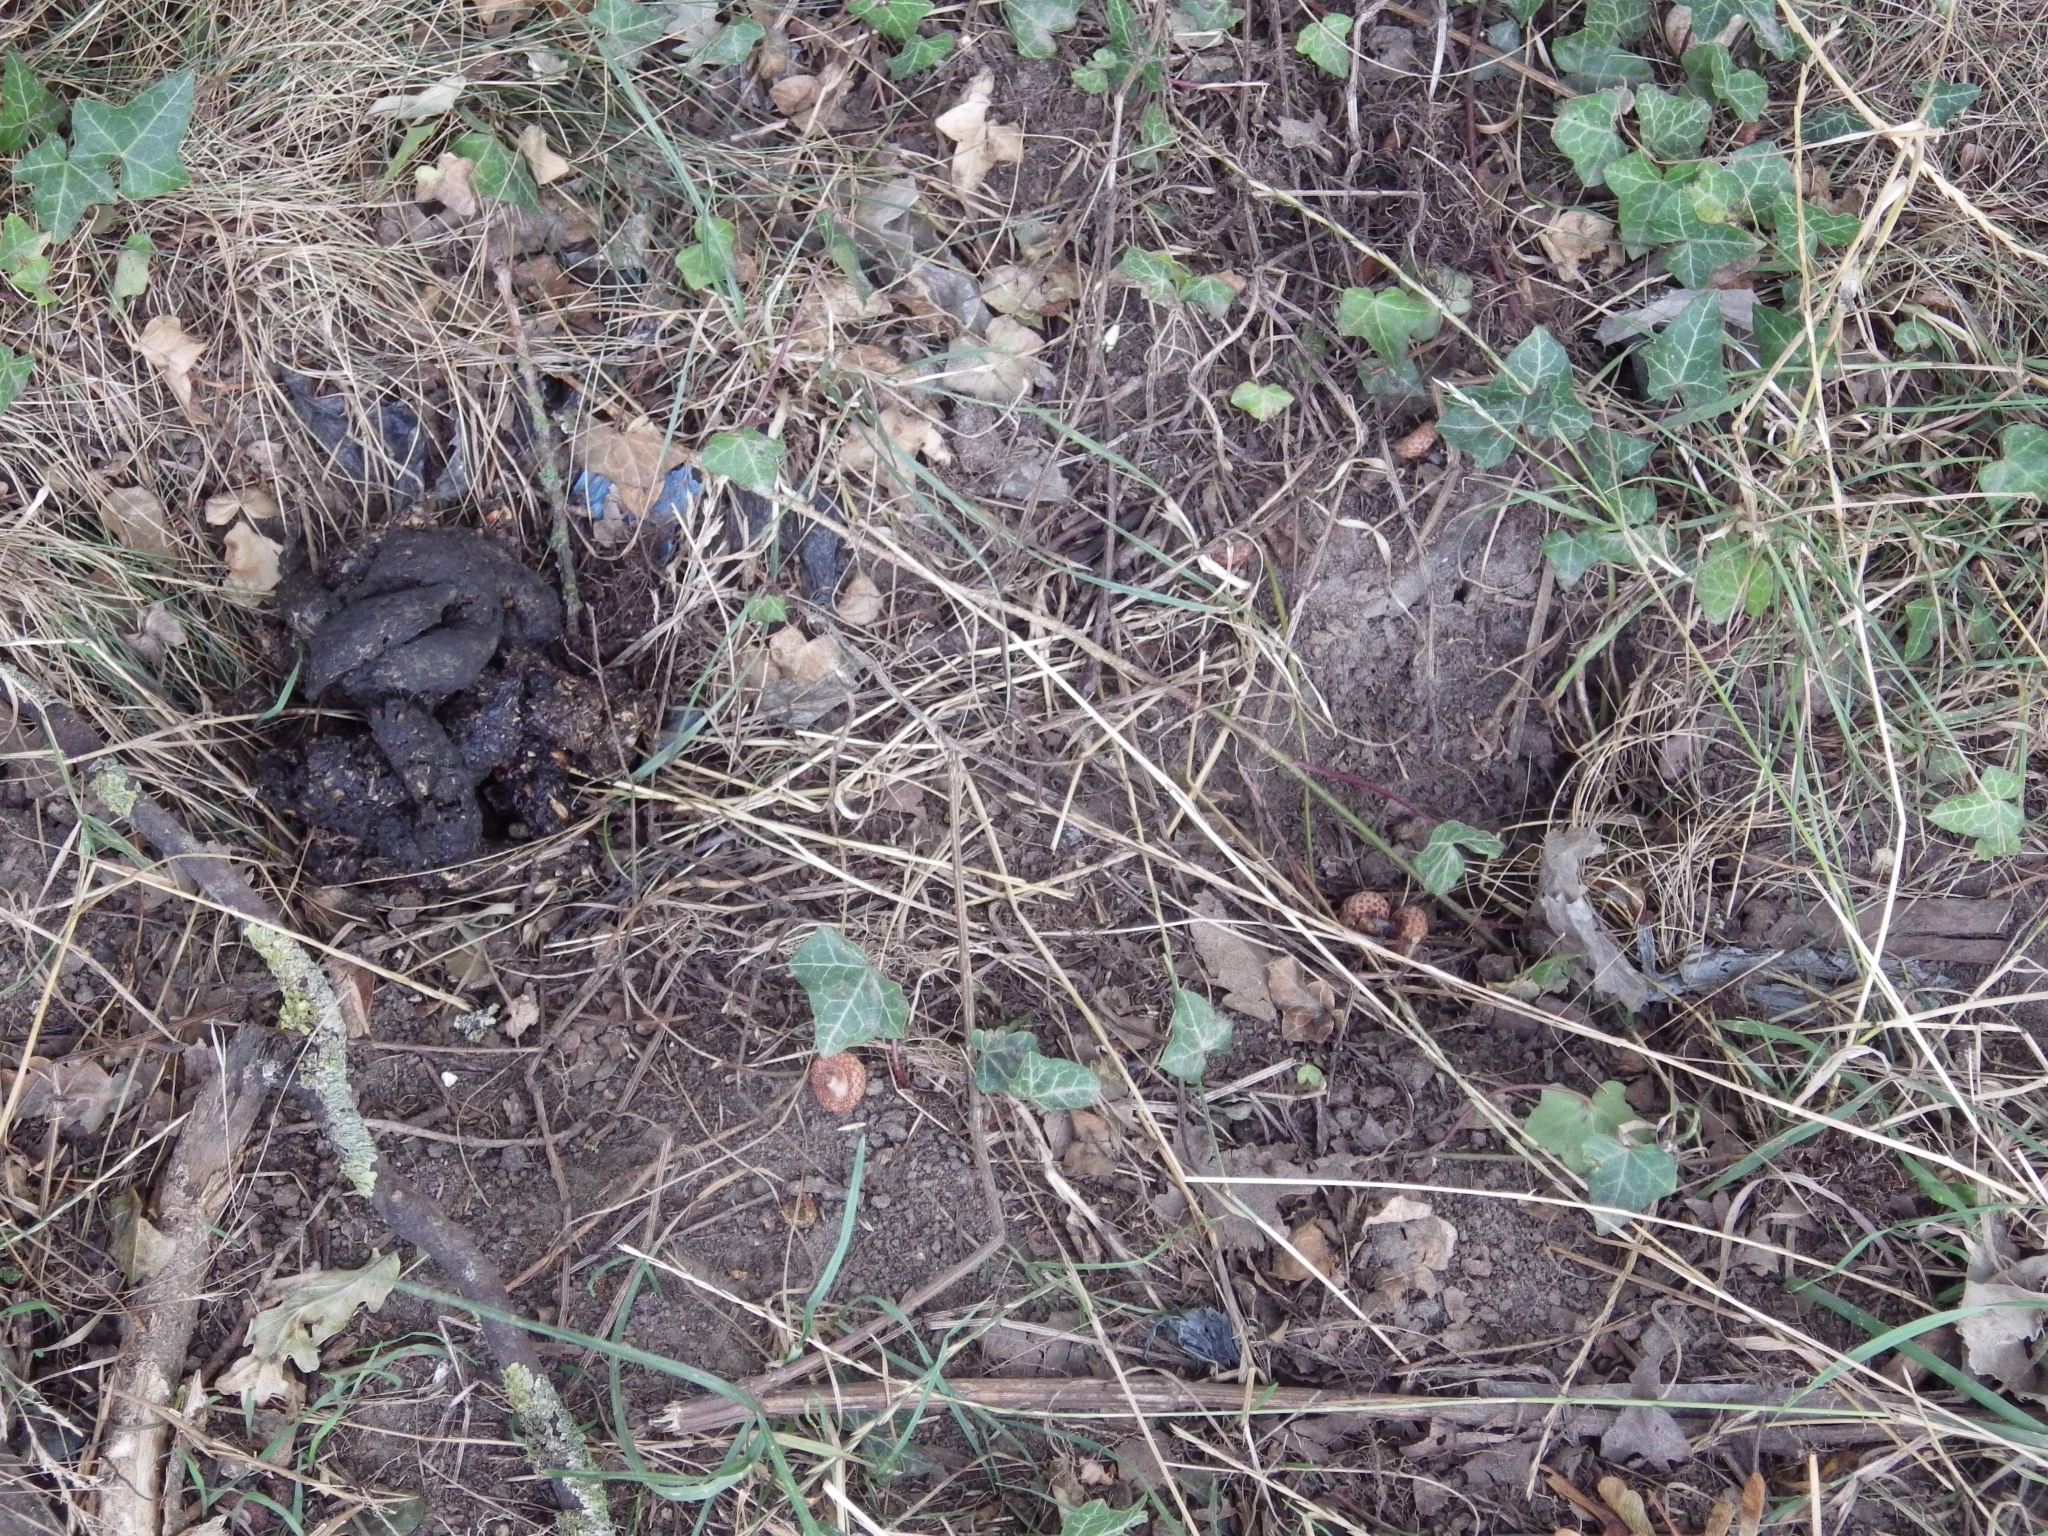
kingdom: Animalia
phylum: Chordata
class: Mammalia
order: Carnivora
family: Mustelidae
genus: Meles
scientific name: Meles meles
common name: Eurasian badger
